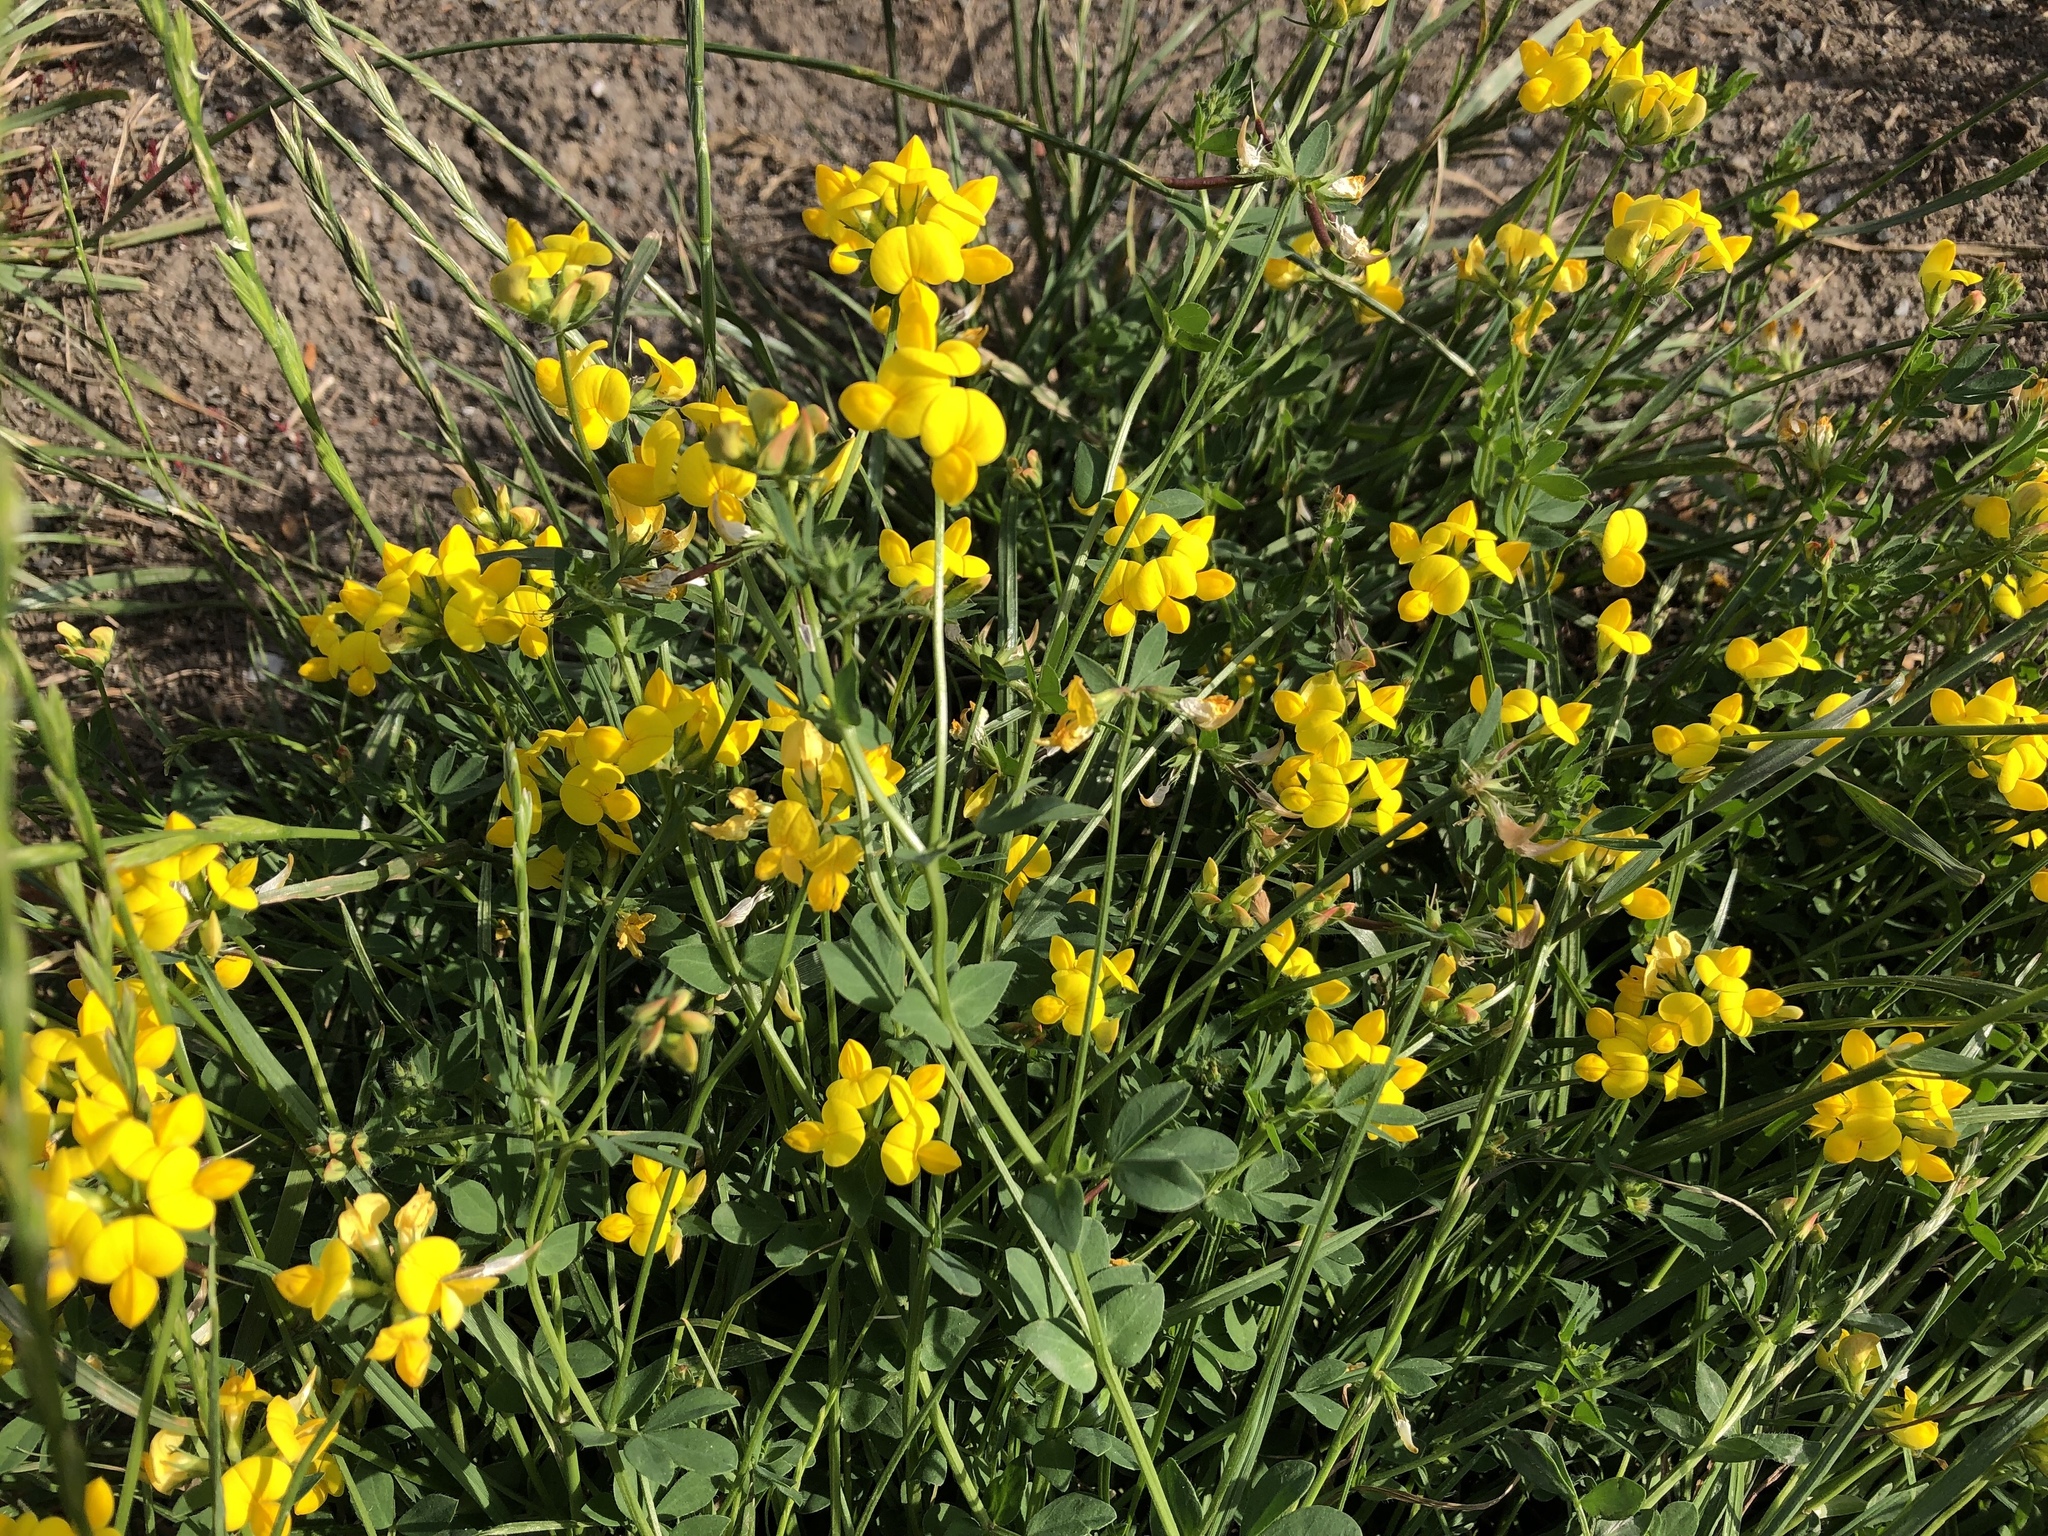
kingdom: Plantae
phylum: Tracheophyta
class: Magnoliopsida
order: Fabales
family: Fabaceae
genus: Lotus
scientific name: Lotus corniculatus
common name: Common bird's-foot-trefoil
